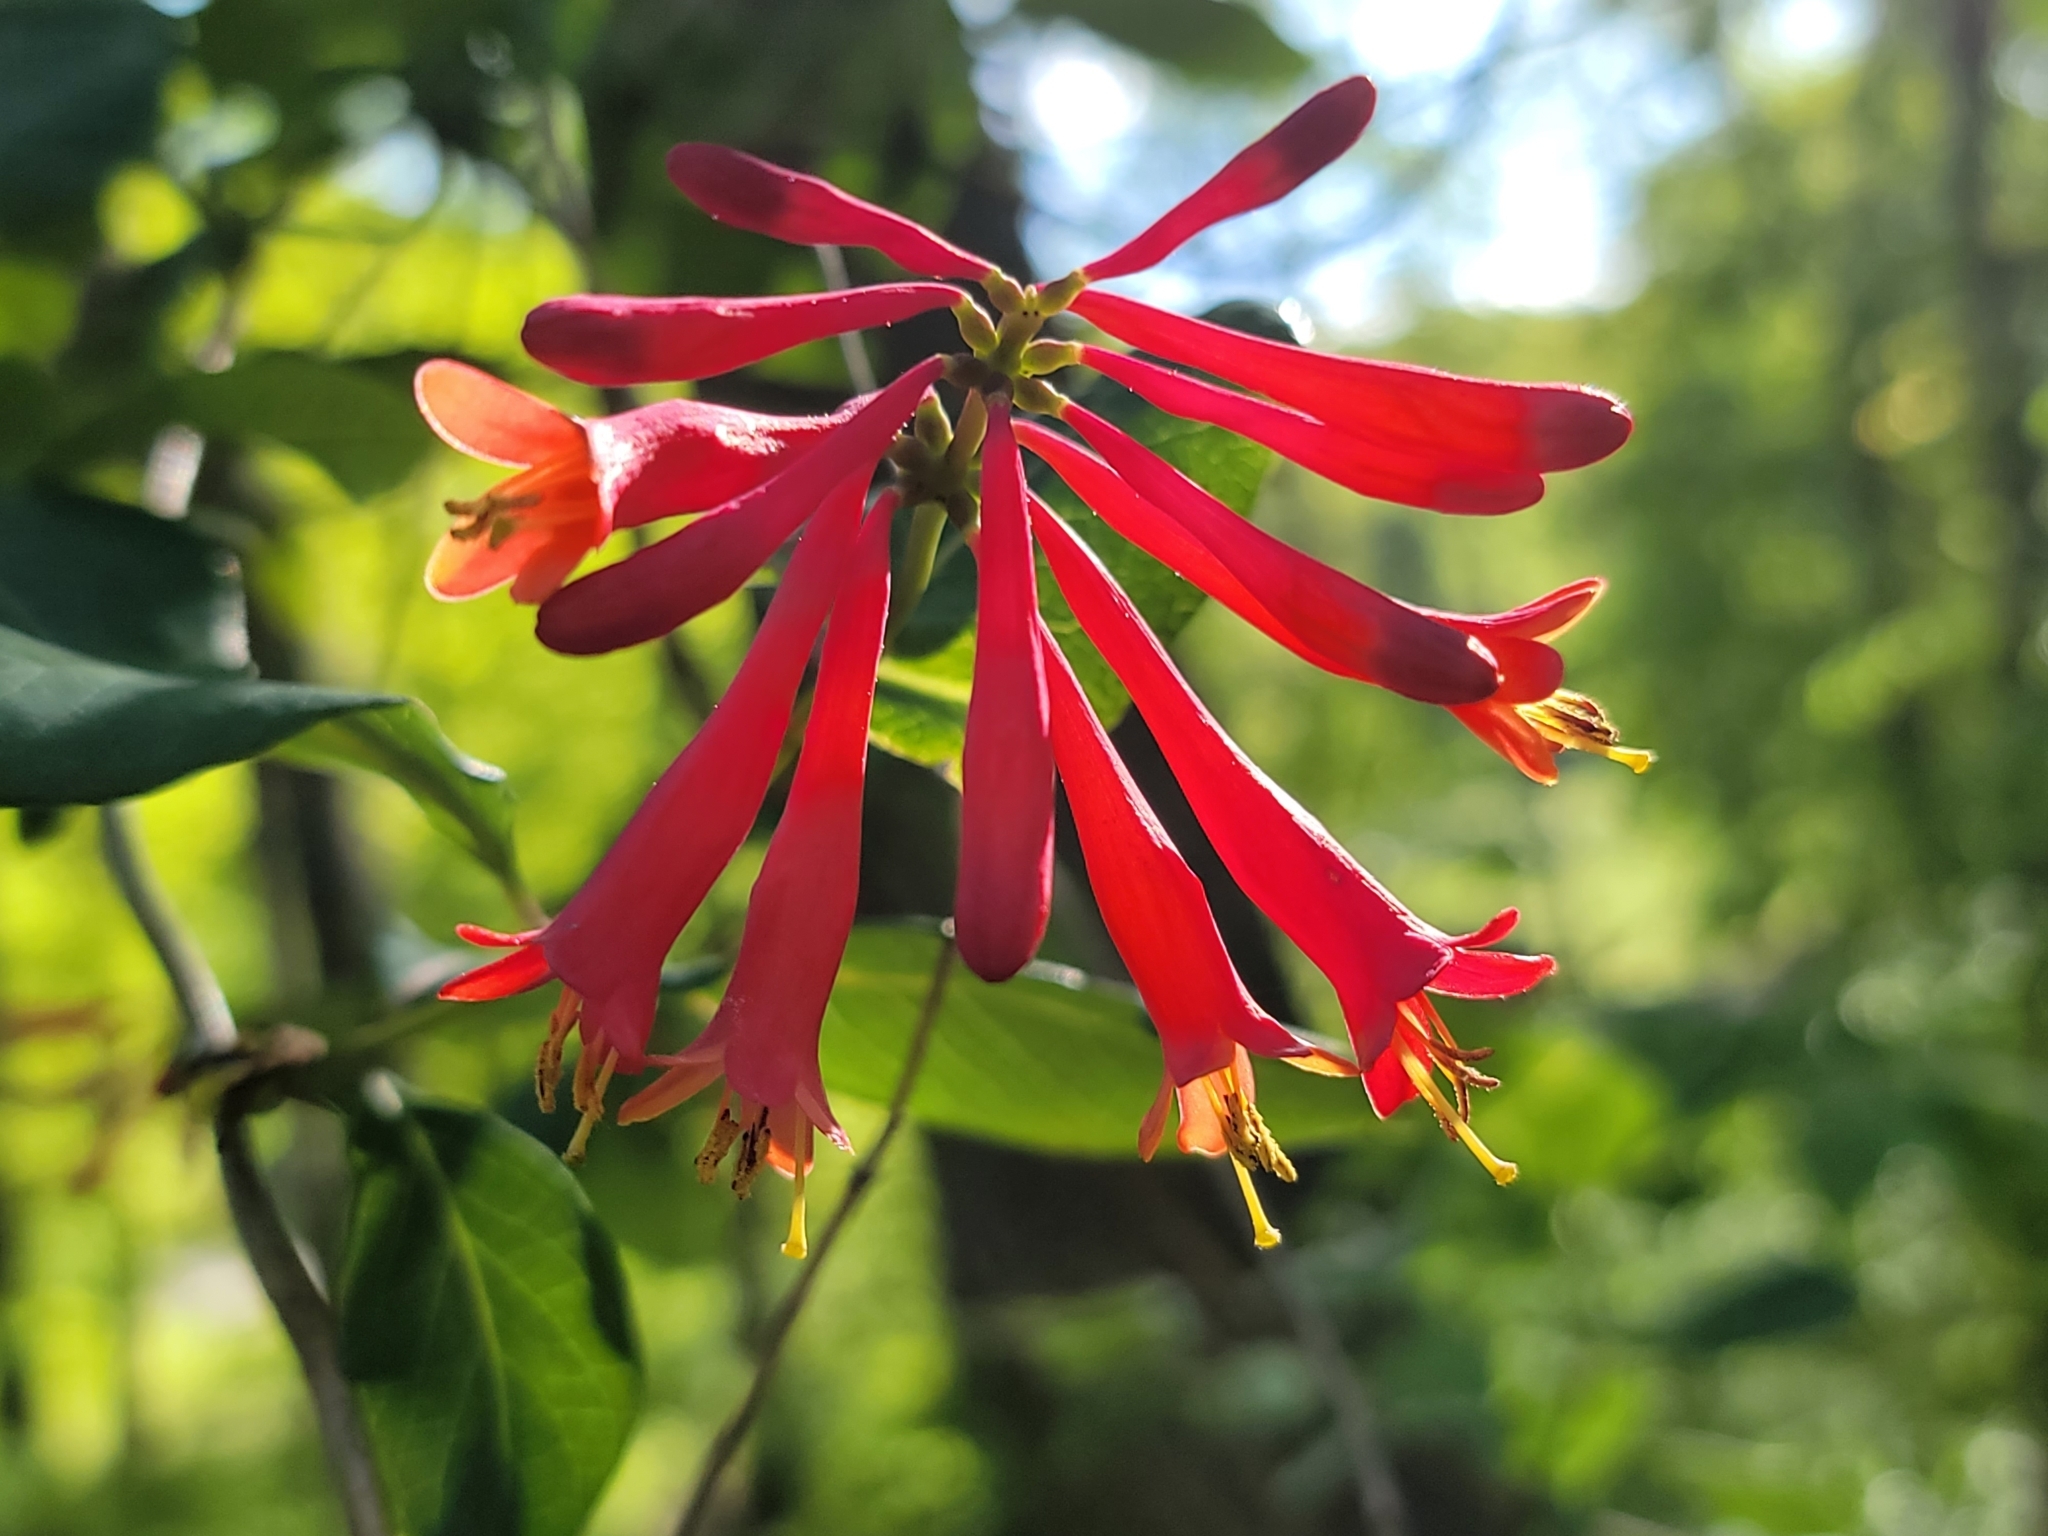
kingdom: Plantae
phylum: Tracheophyta
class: Magnoliopsida
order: Dipsacales
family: Caprifoliaceae
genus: Lonicera
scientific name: Lonicera sempervirens
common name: Coral honeysuckle
